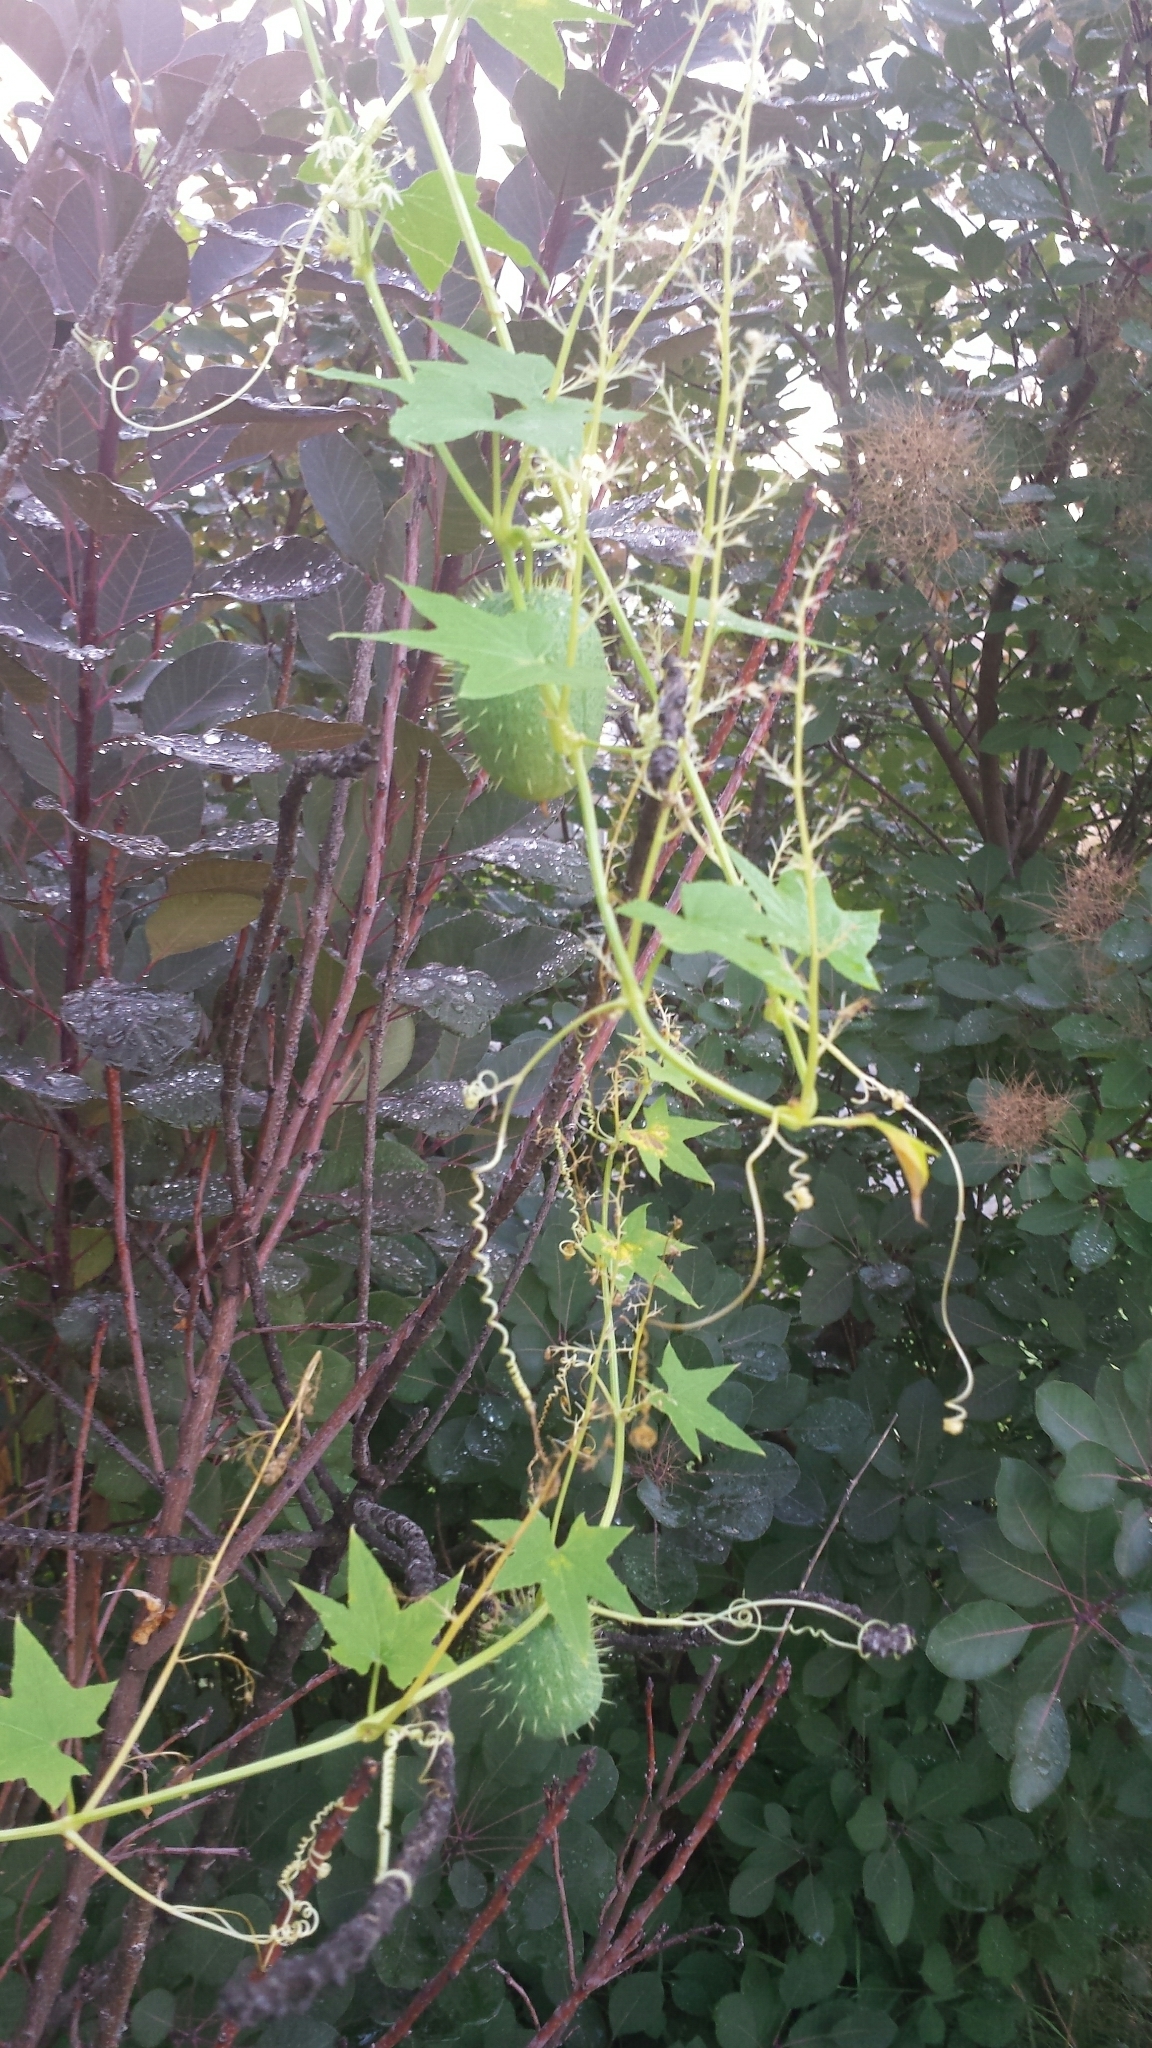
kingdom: Plantae
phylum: Tracheophyta
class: Magnoliopsida
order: Cucurbitales
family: Cucurbitaceae
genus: Echinocystis
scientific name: Echinocystis lobata
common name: Wild cucumber
